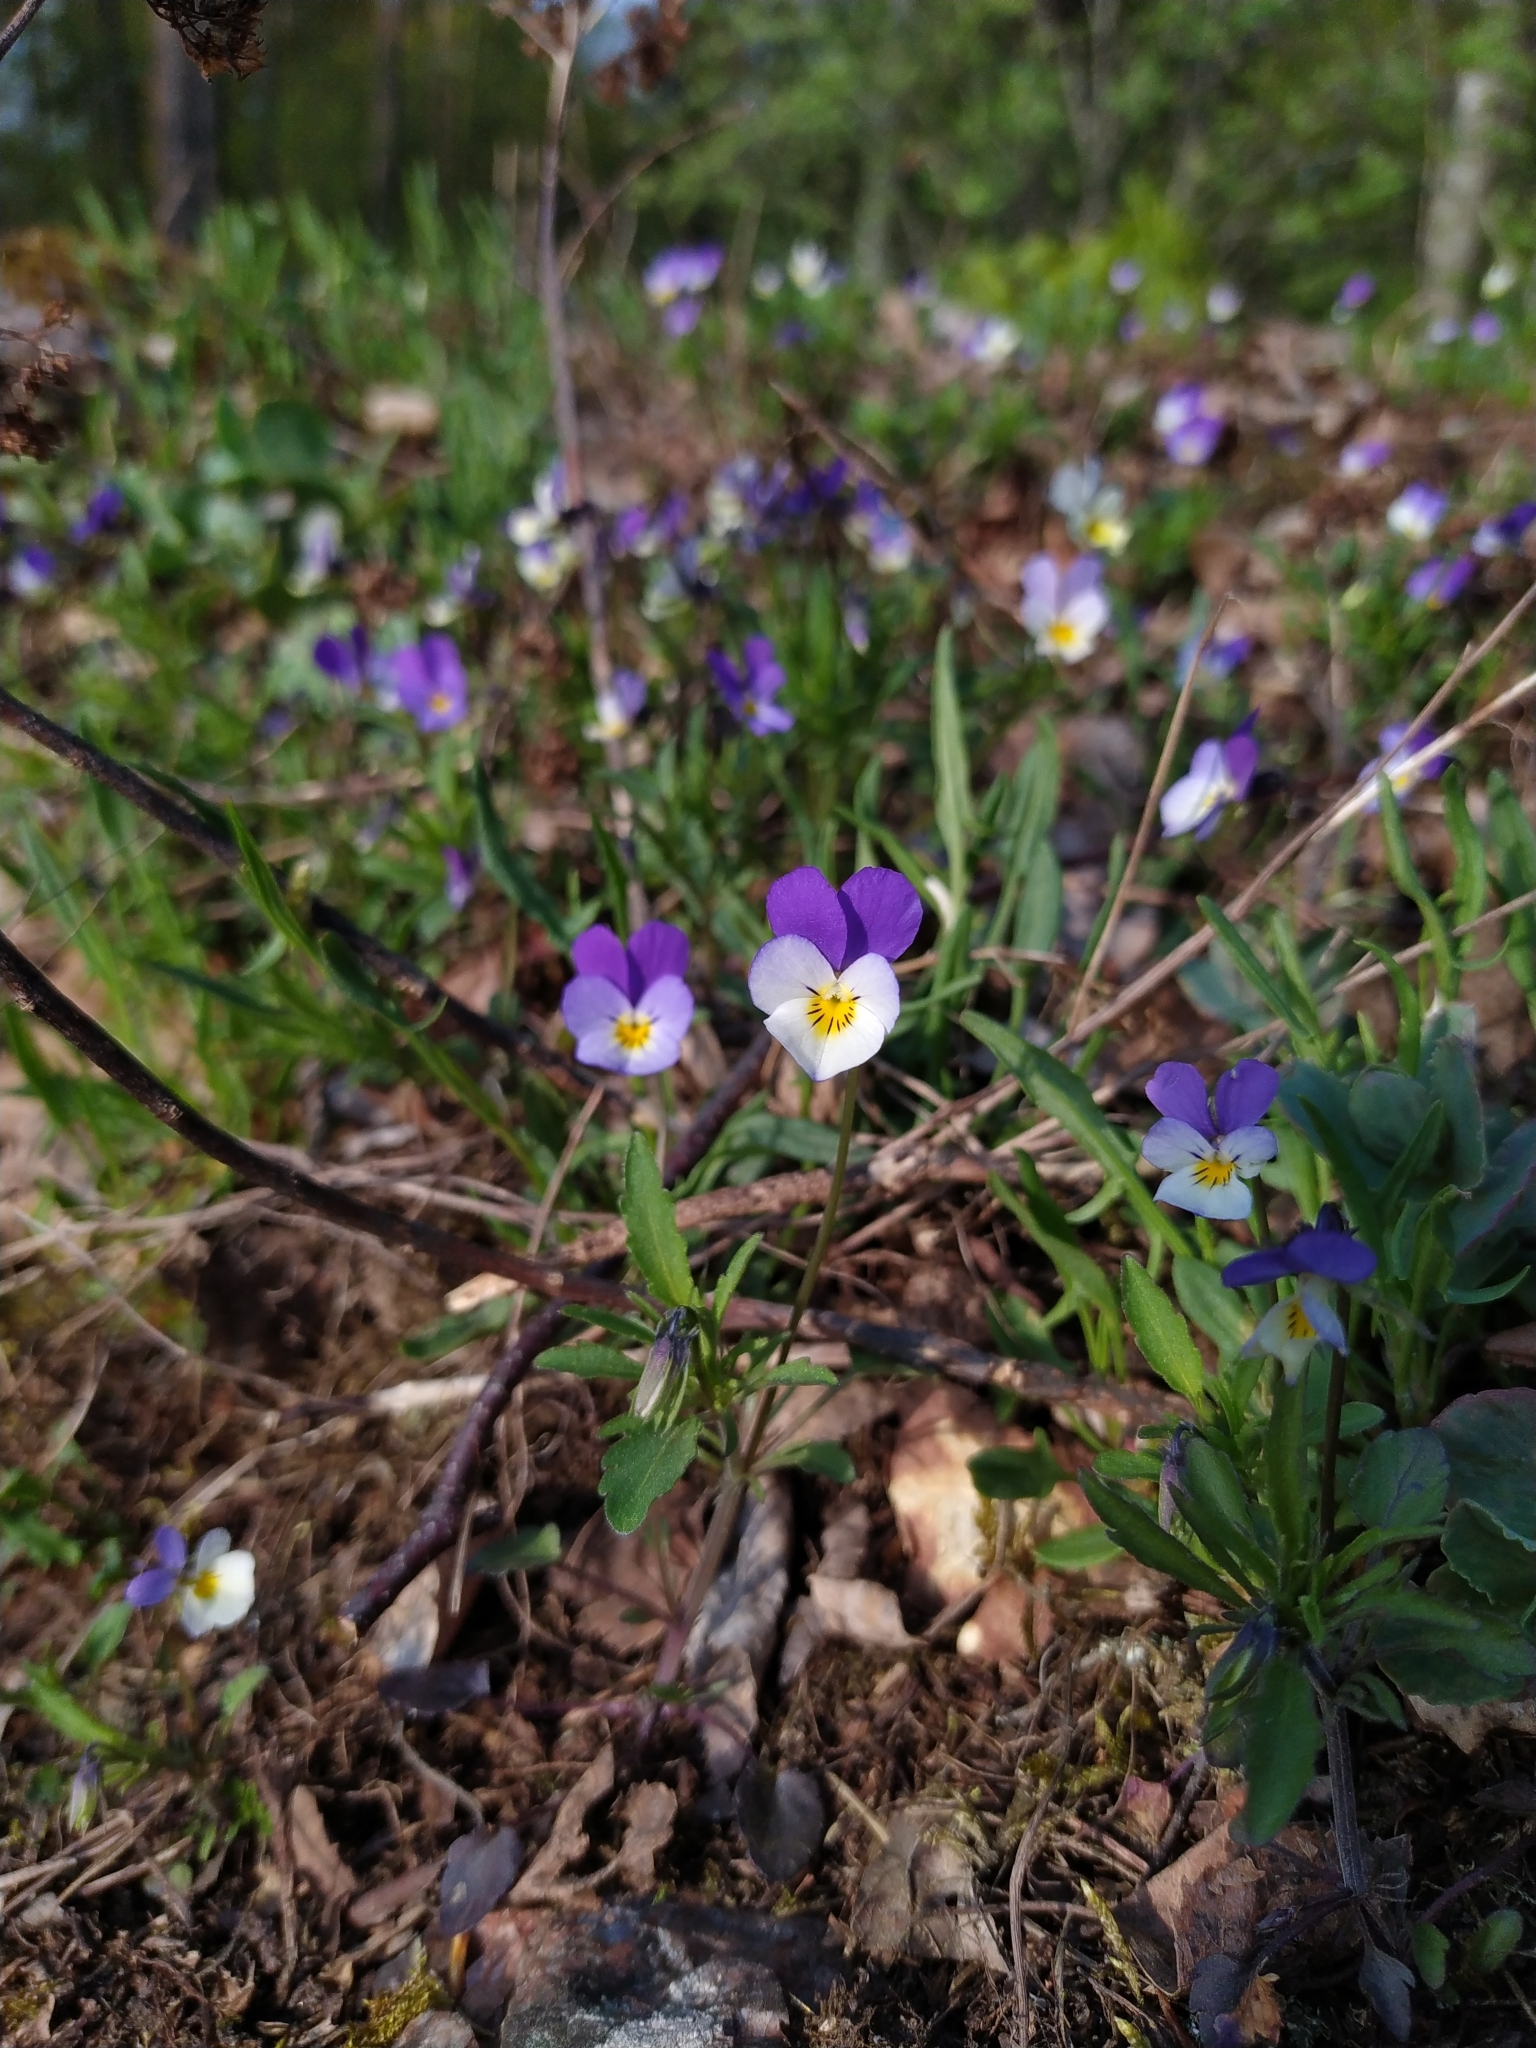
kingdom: Plantae
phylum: Tracheophyta
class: Magnoliopsida
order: Malpighiales
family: Violaceae
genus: Viola
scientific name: Viola tricolor
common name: Pansy
